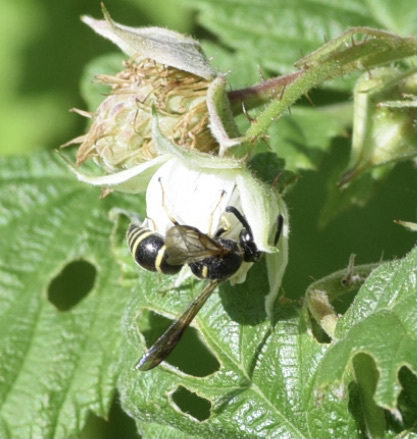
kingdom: Animalia
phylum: Arthropoda
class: Insecta
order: Hymenoptera
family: Eumenidae
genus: Euodynerus
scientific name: Euodynerus foraminatus
